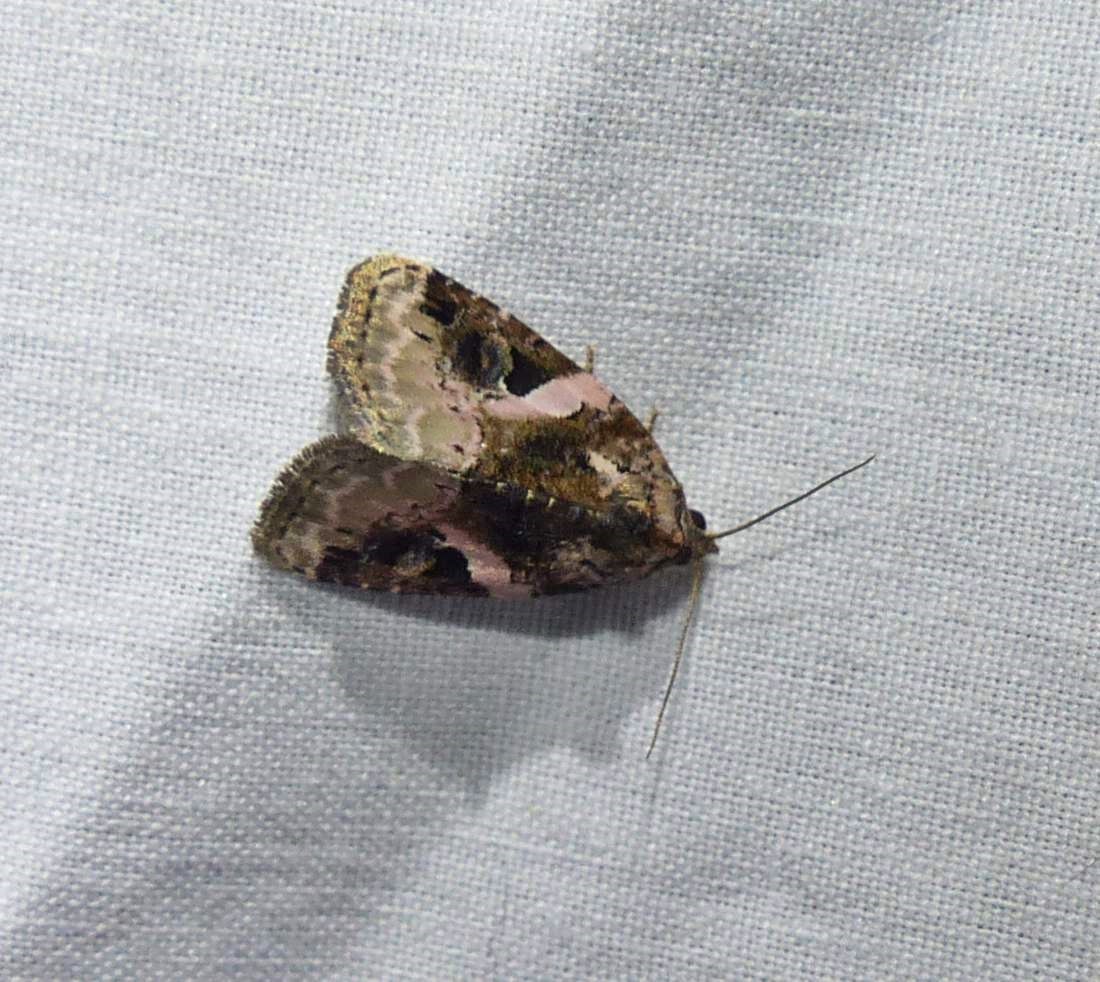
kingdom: Animalia
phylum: Arthropoda
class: Insecta
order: Lepidoptera
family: Noctuidae
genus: Pseudeustrotia
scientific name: Pseudeustrotia carneola
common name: Pink-barred lithacodia moth
